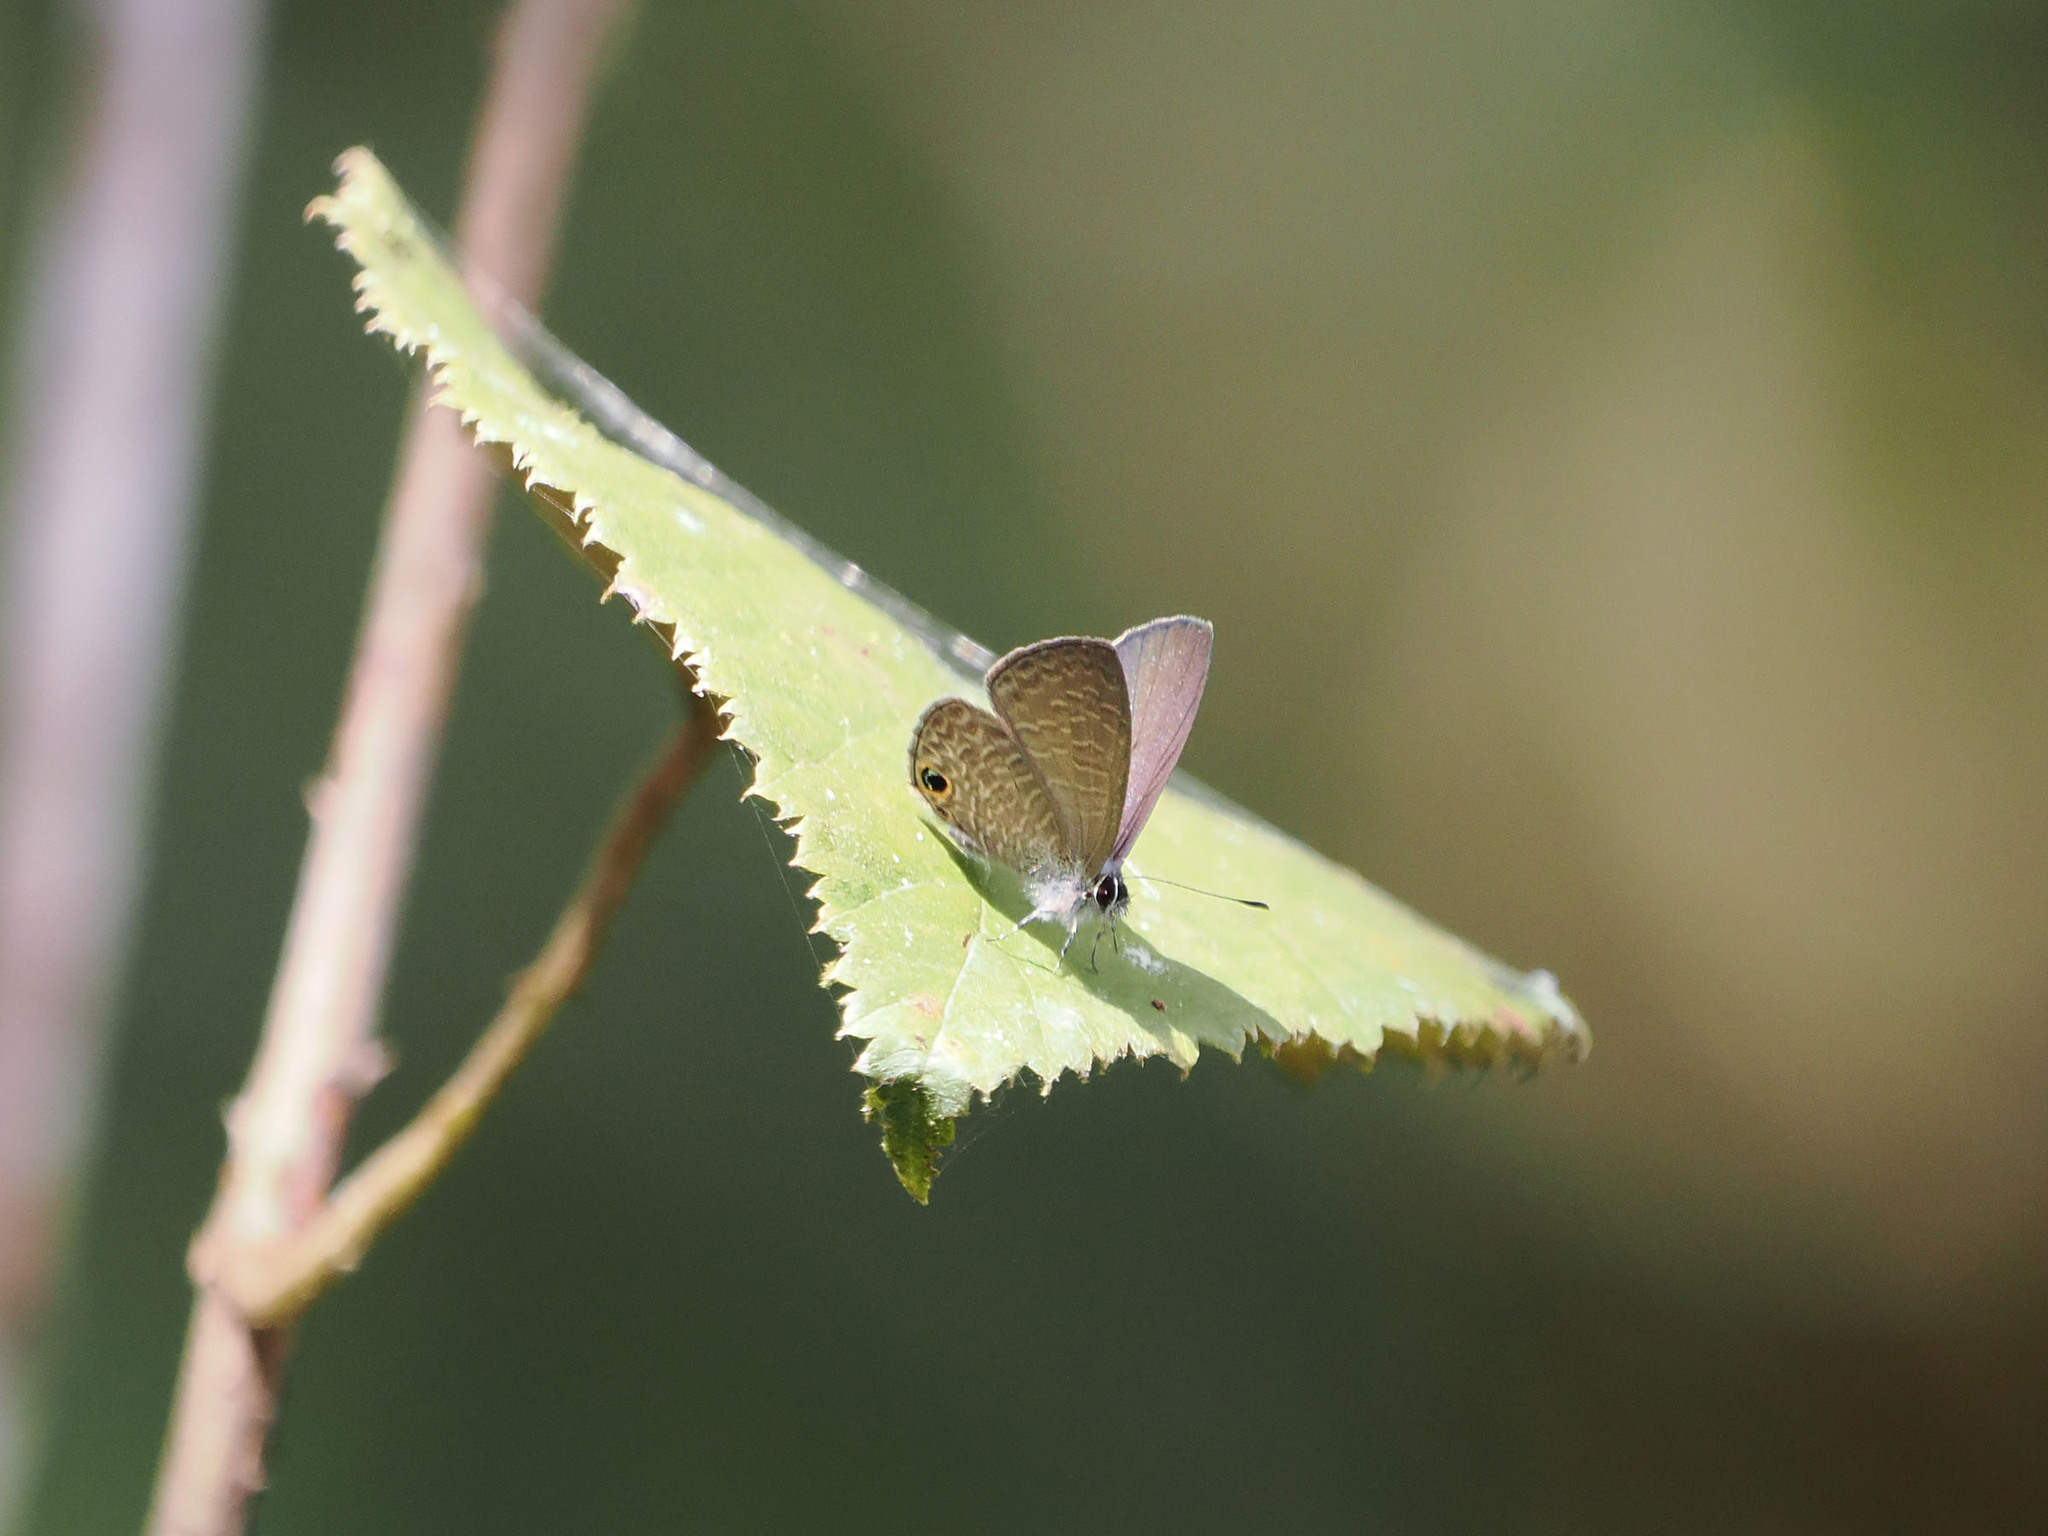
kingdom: Animalia
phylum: Arthropoda
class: Insecta
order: Lepidoptera
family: Lycaenidae
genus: Prosotas
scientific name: Prosotas dubiosa
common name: Tailless lineblue
